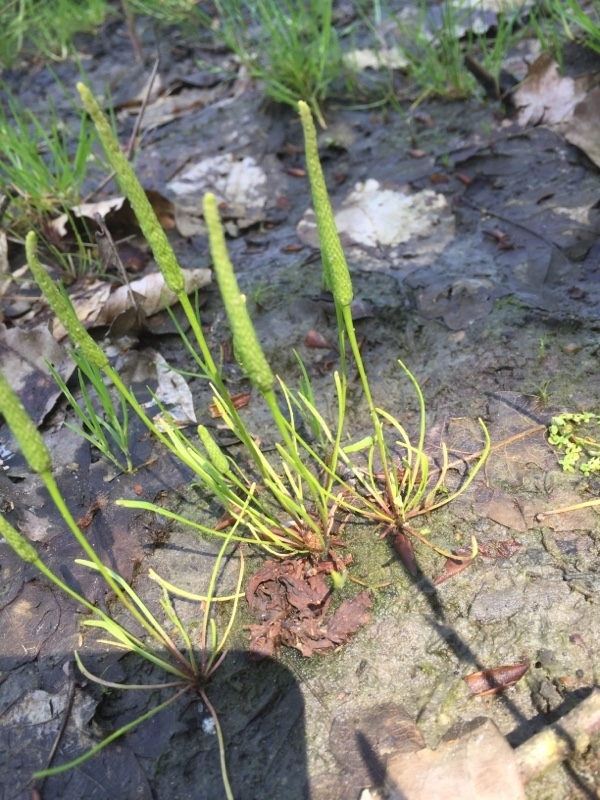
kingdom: Plantae
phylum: Tracheophyta
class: Magnoliopsida
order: Ranunculales
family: Ranunculaceae
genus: Myosurus
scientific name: Myosurus minimus
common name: Mousetail
